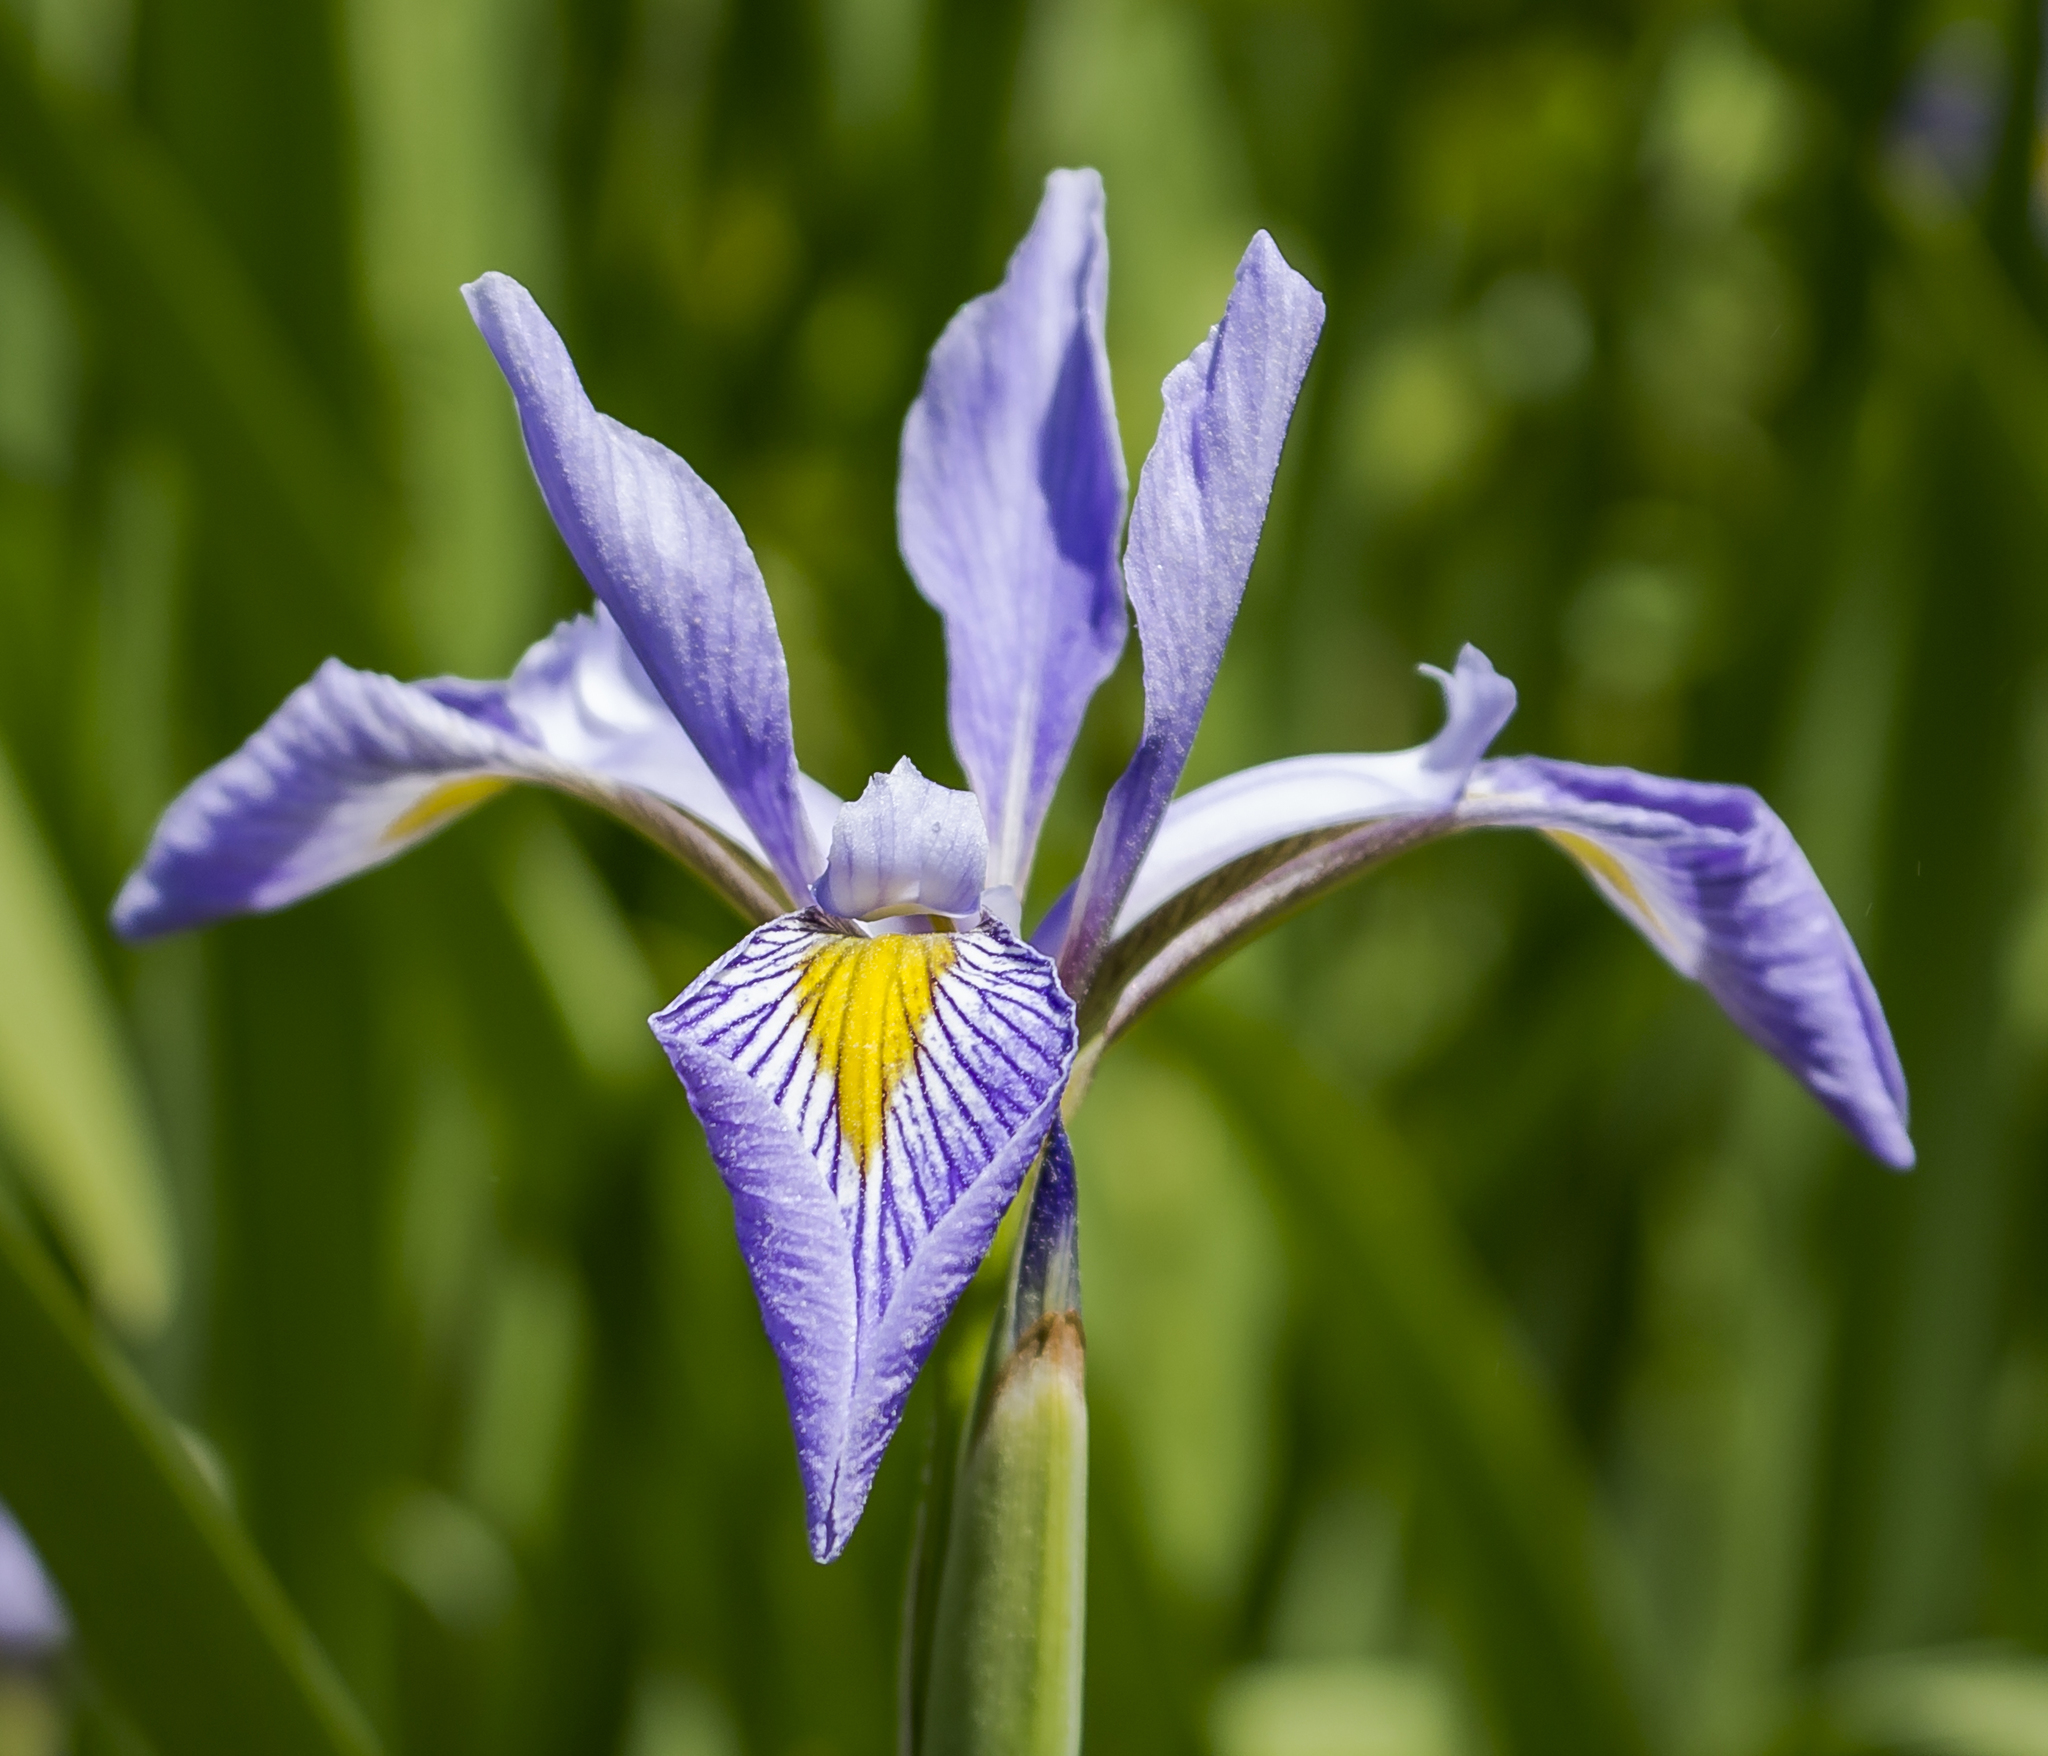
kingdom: Plantae
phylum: Tracheophyta
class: Liliopsida
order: Asparagales
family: Iridaceae
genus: Iris
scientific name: Iris virginica
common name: Southern blue flag
